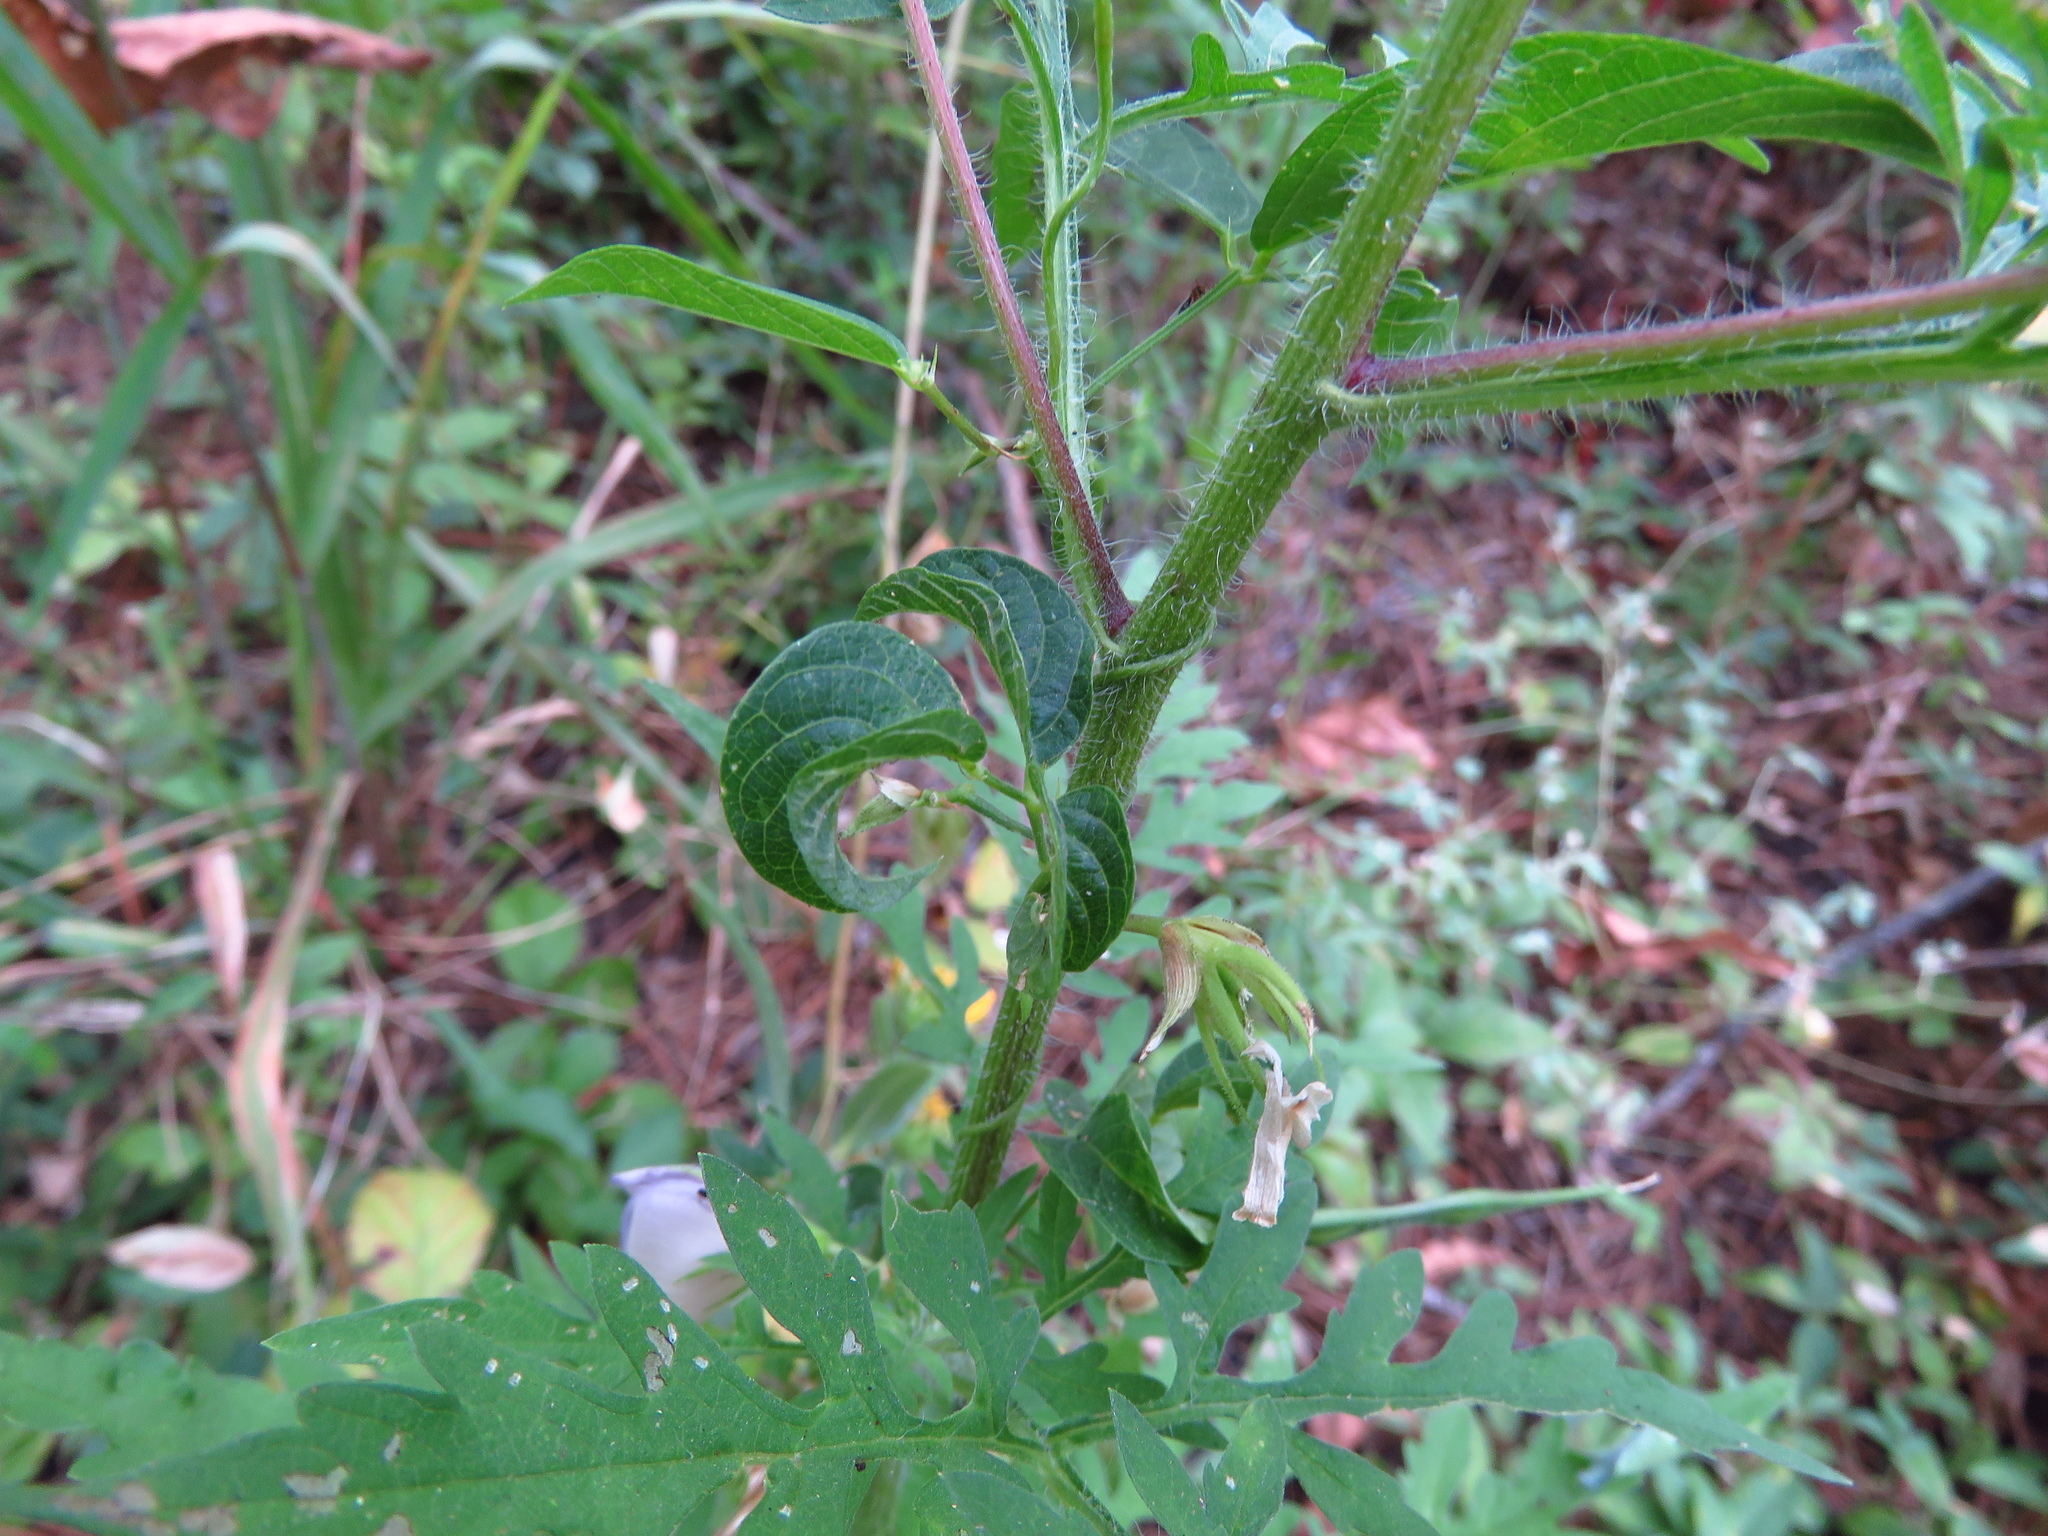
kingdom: Plantae
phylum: Tracheophyta
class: Magnoliopsida
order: Fabales
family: Fabaceae
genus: Centrosema
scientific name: Centrosema virginianum
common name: Butterfly-pea
